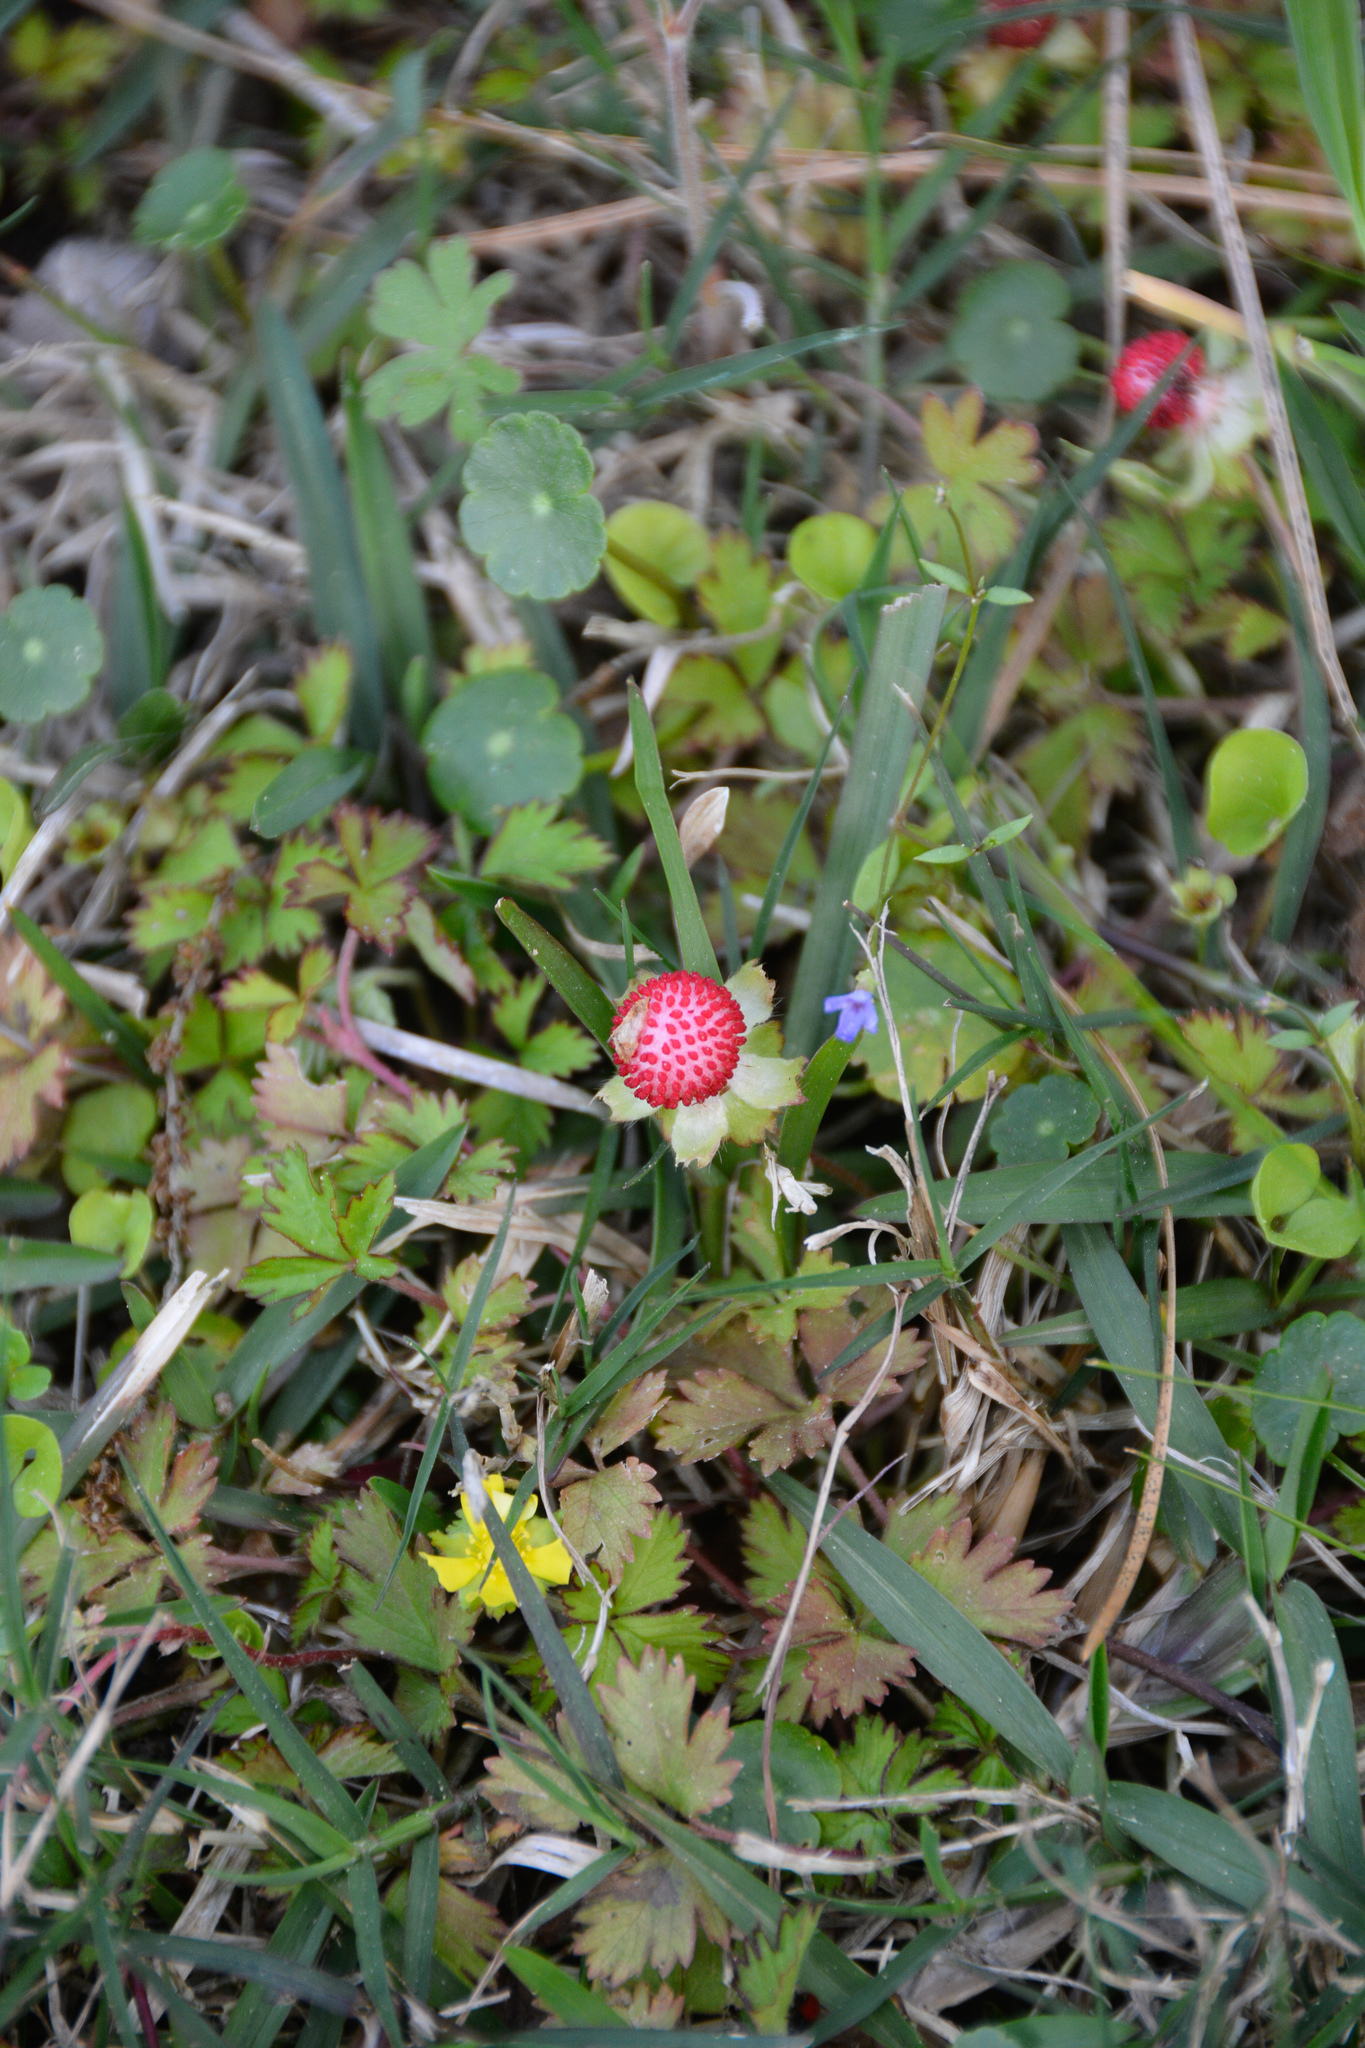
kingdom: Plantae
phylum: Tracheophyta
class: Magnoliopsida
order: Rosales
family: Rosaceae
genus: Potentilla
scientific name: Potentilla indica
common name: Yellow-flowered strawberry
